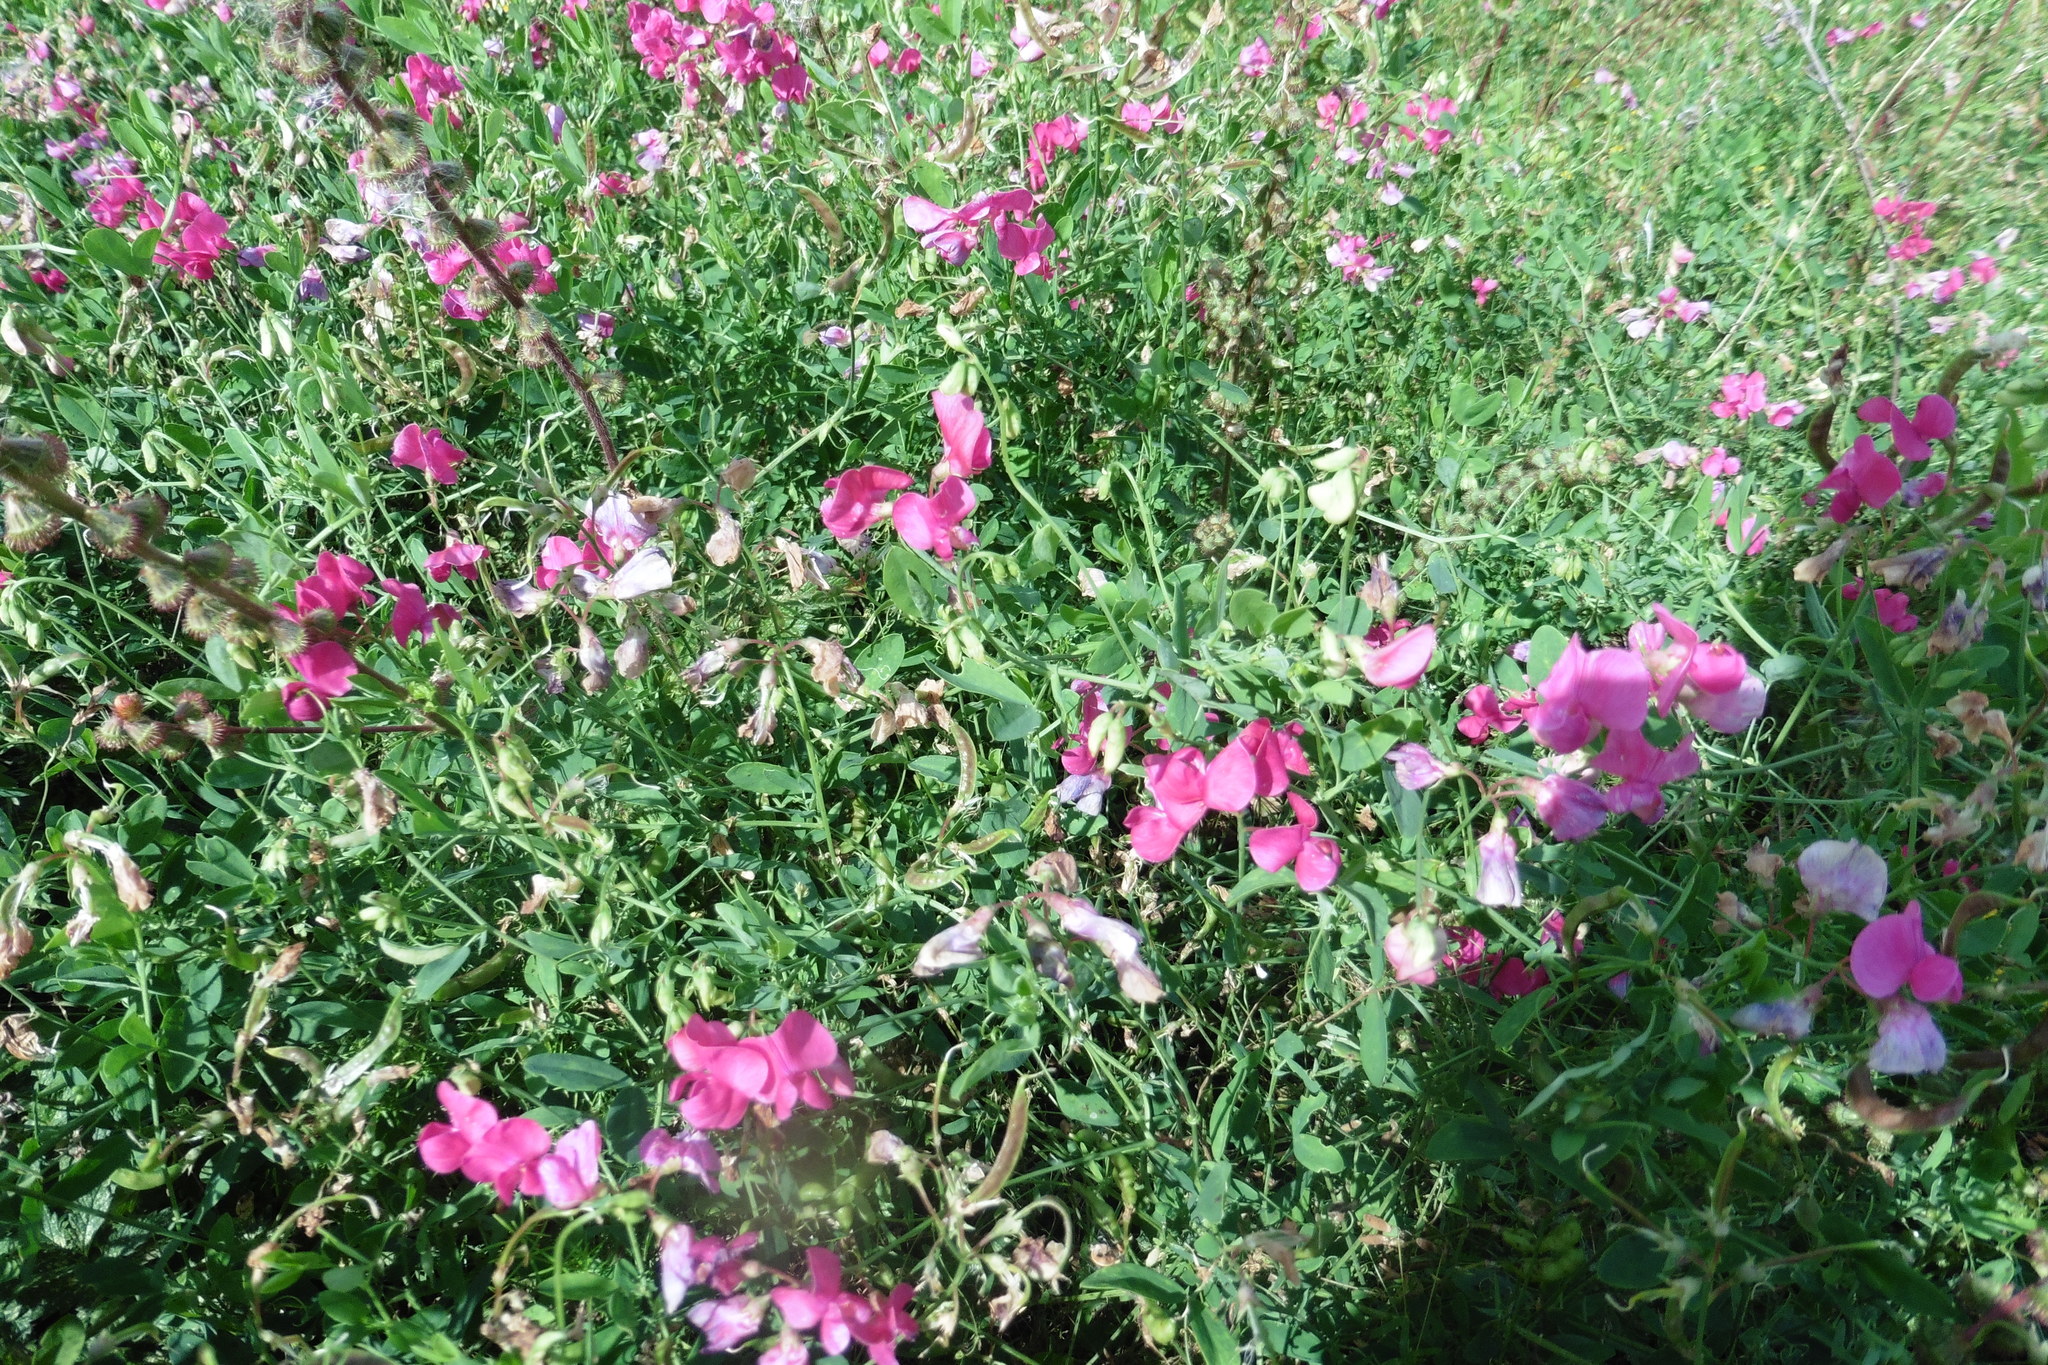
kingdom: Plantae
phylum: Tracheophyta
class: Magnoliopsida
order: Fabales
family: Fabaceae
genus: Lathyrus
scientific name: Lathyrus tuberosus
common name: Tuberous pea
